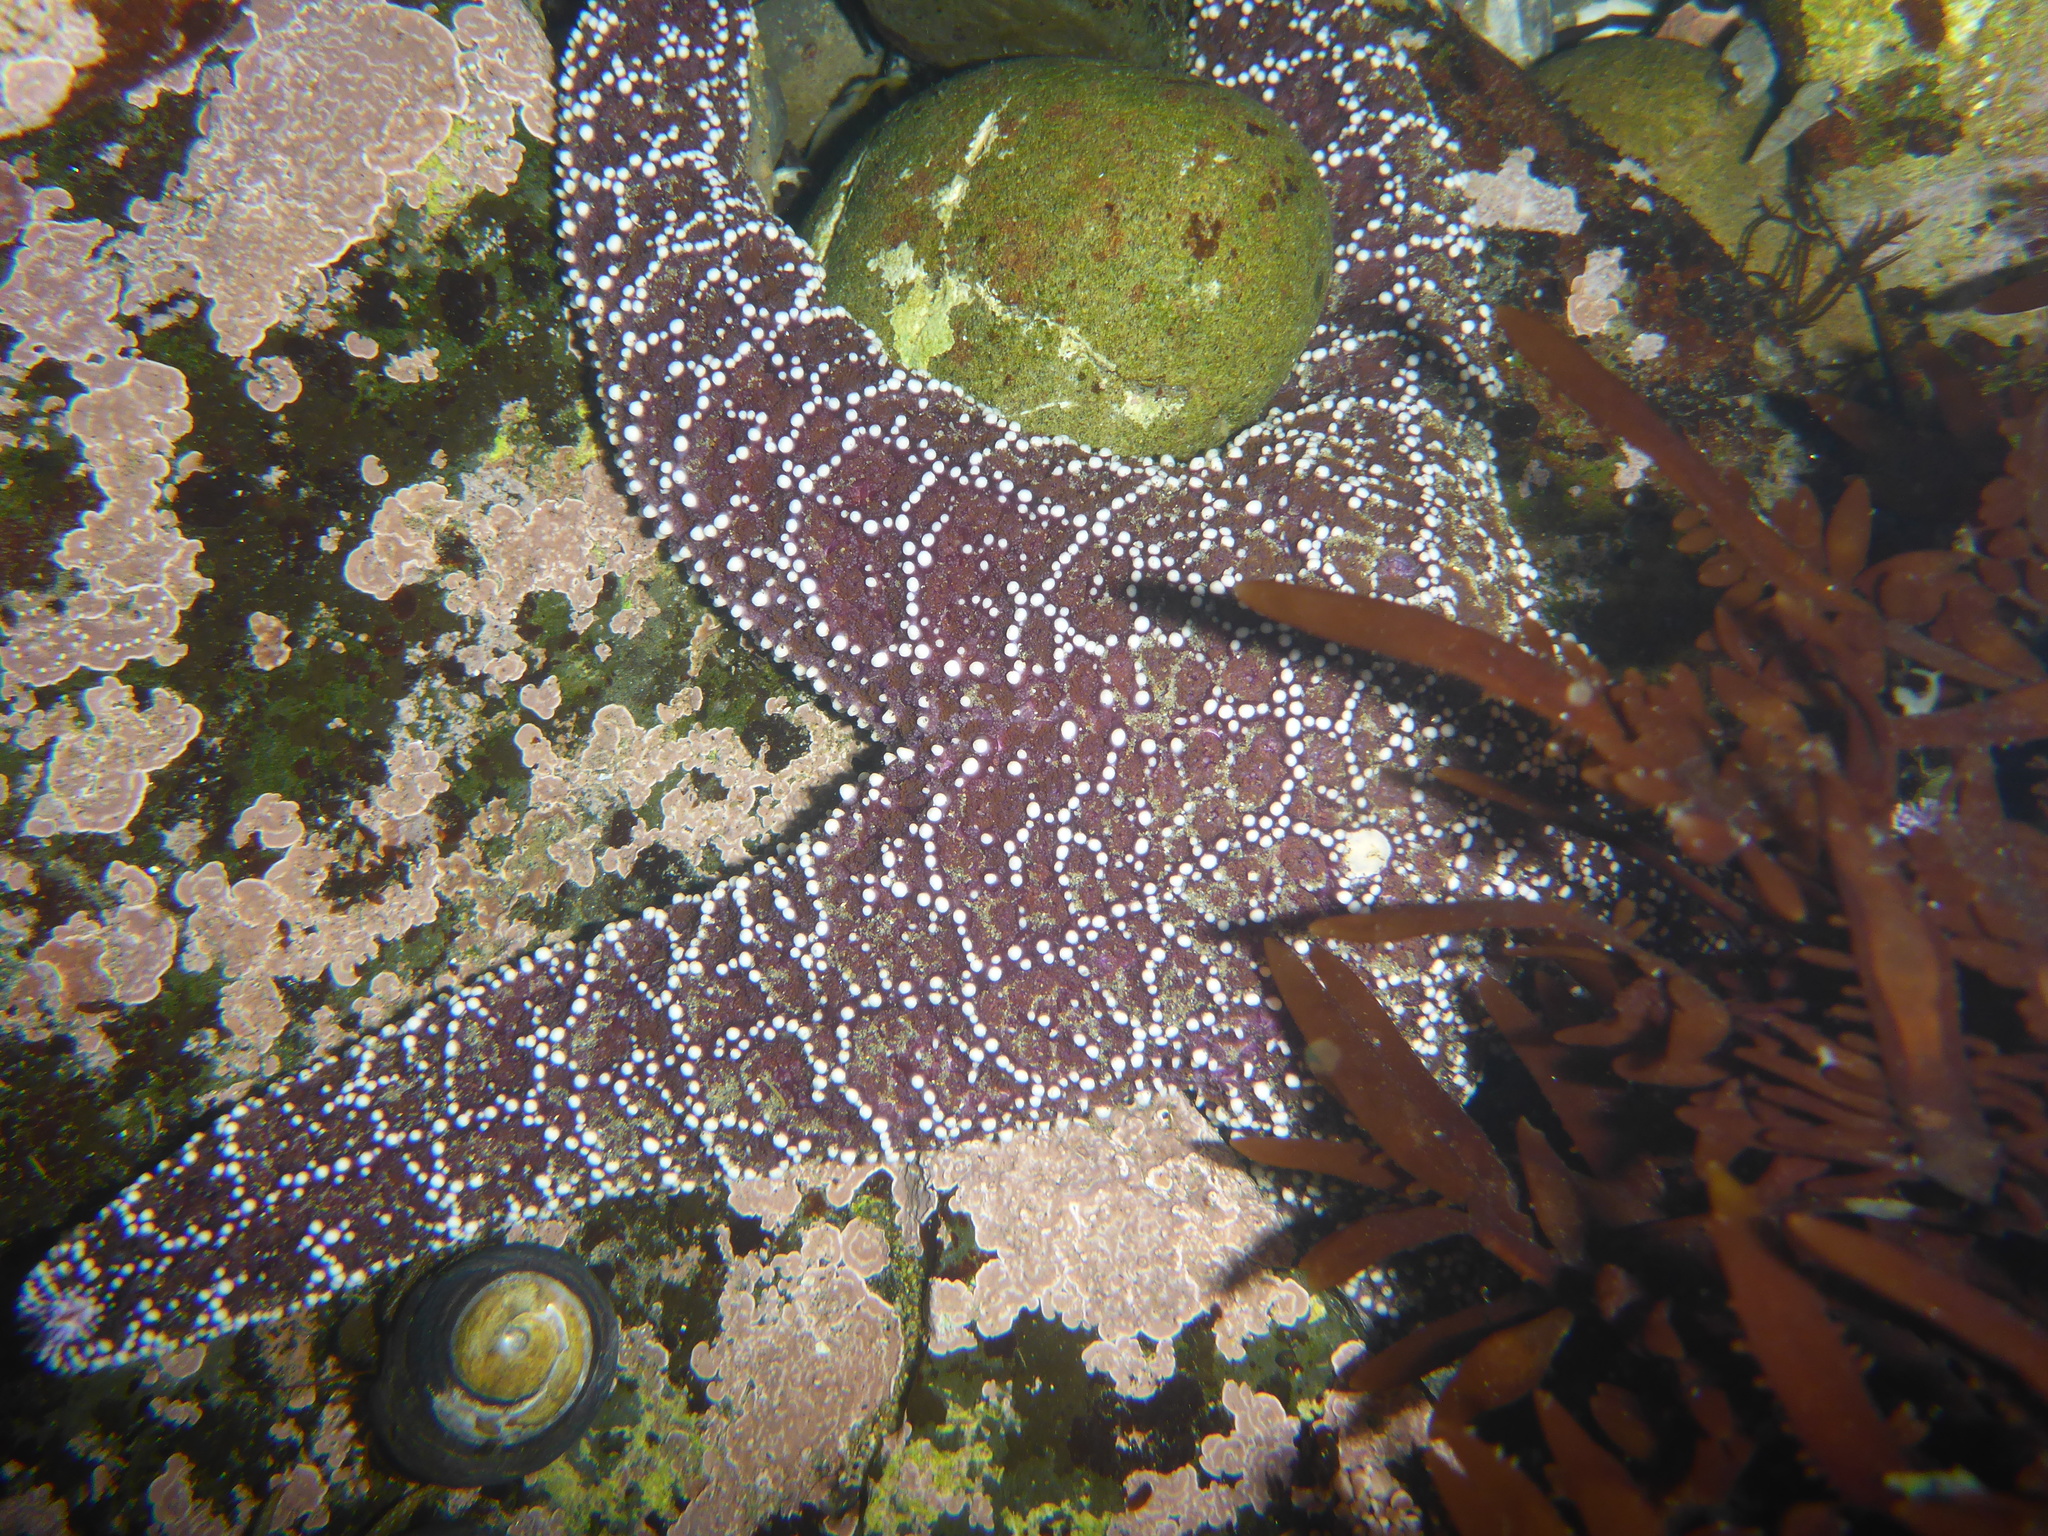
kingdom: Animalia
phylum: Echinodermata
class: Asteroidea
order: Forcipulatida
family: Asteriidae
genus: Pisaster
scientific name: Pisaster ochraceus
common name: Ochre stars
